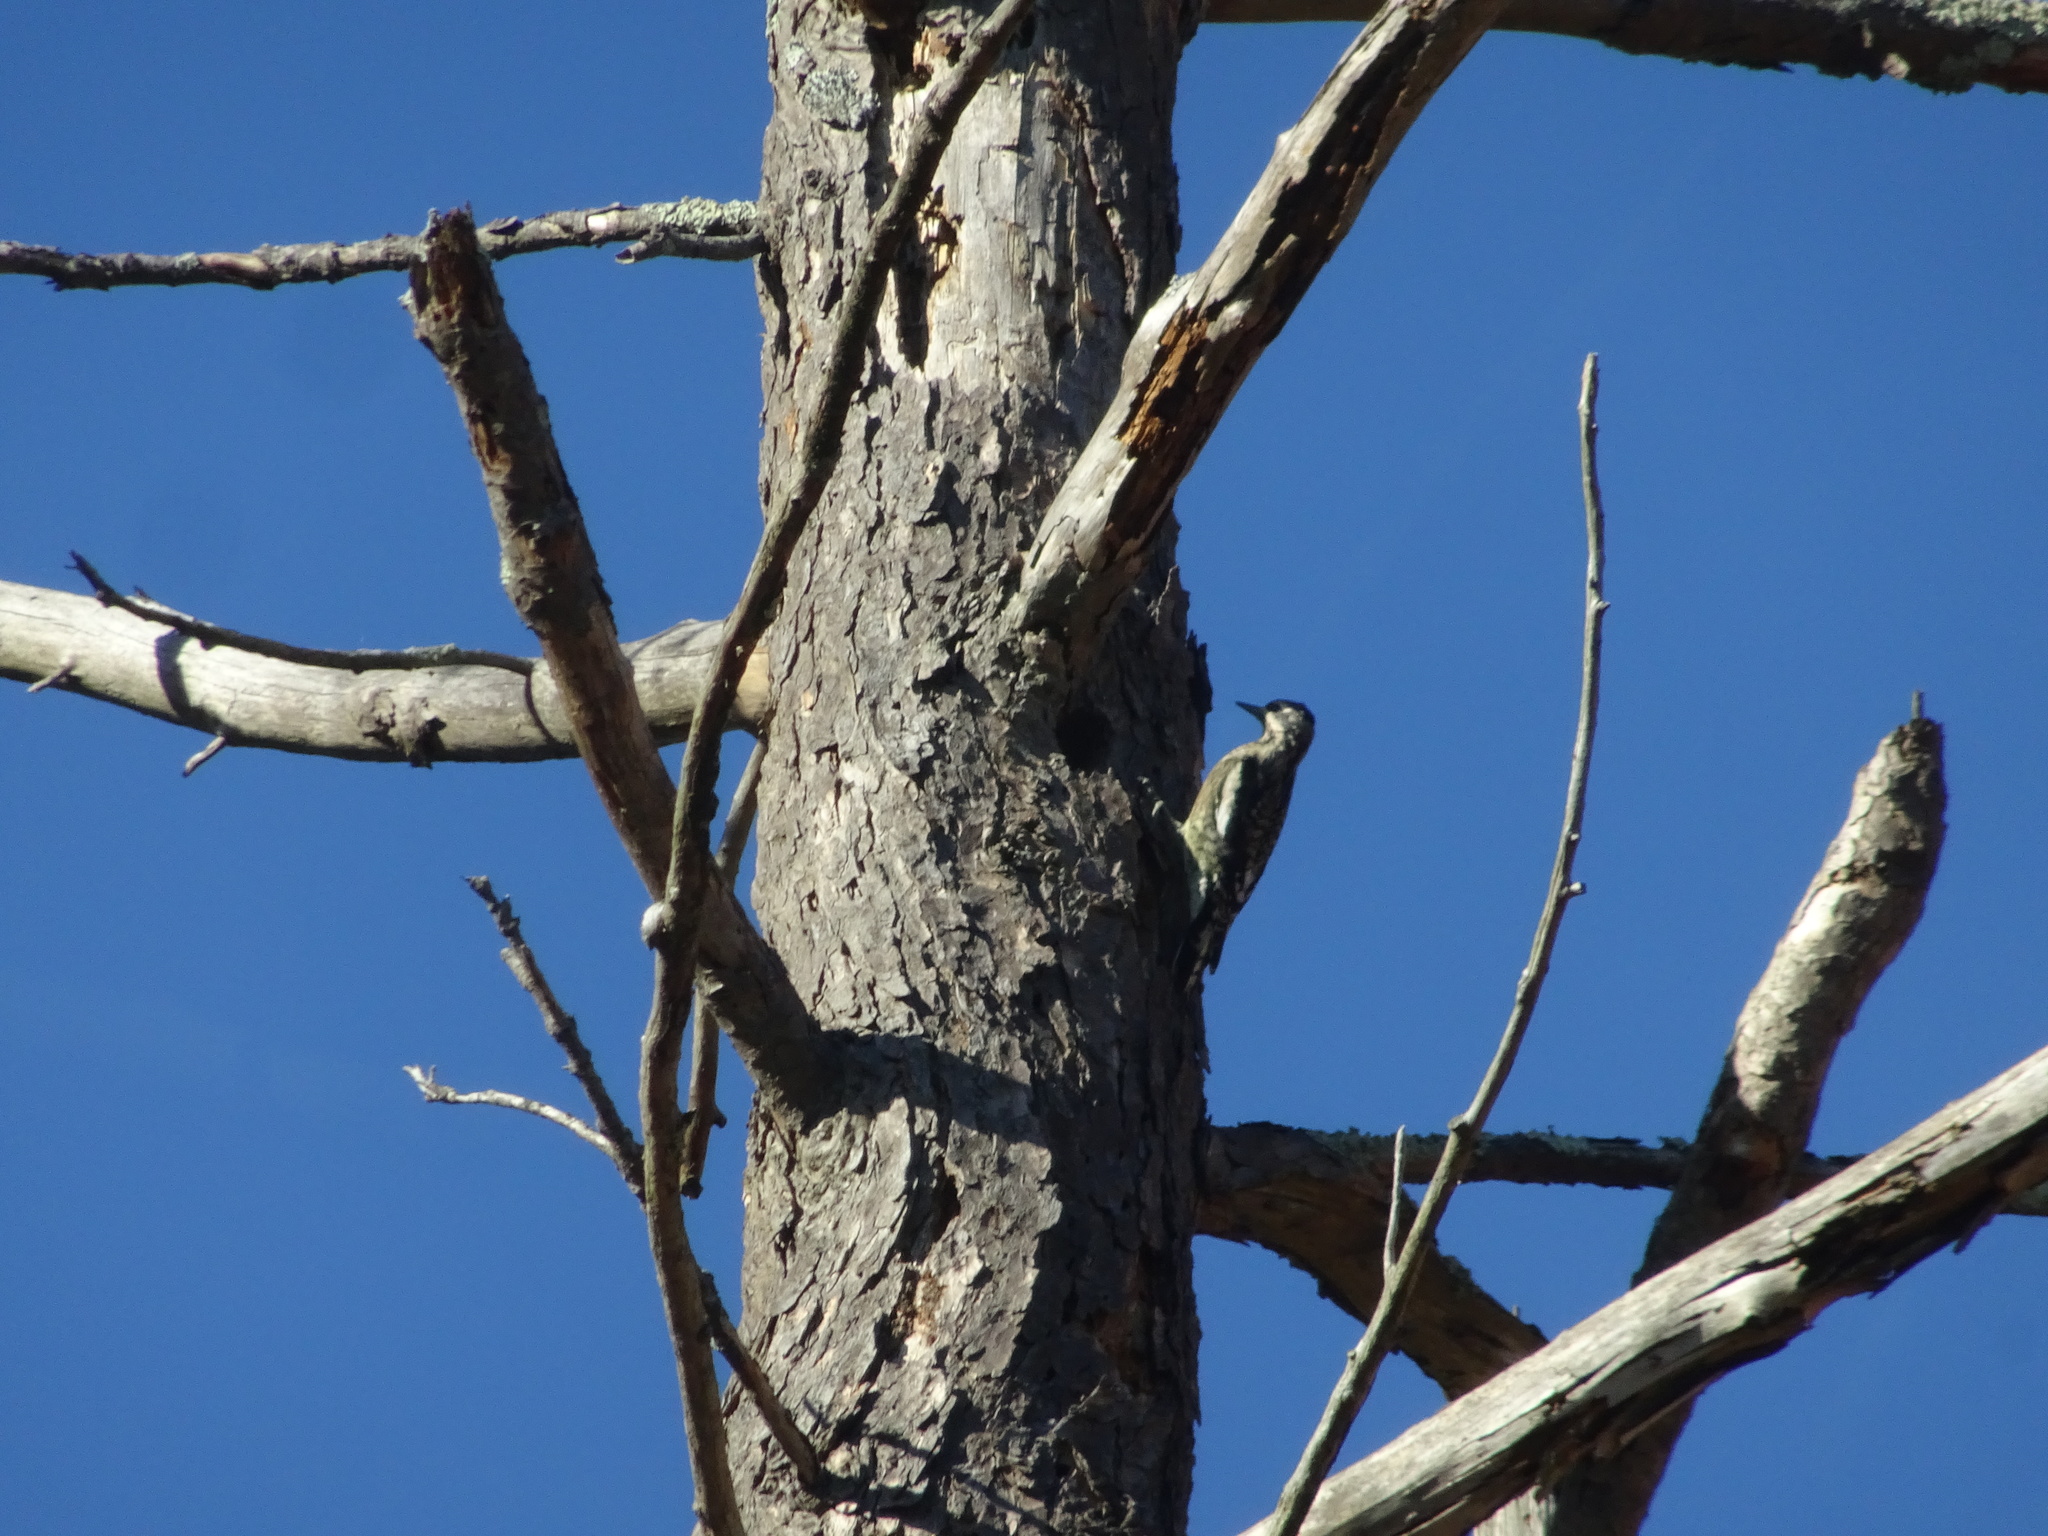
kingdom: Animalia
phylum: Chordata
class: Aves
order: Piciformes
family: Picidae
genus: Sphyrapicus
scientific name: Sphyrapicus varius
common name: Yellow-bellied sapsucker
